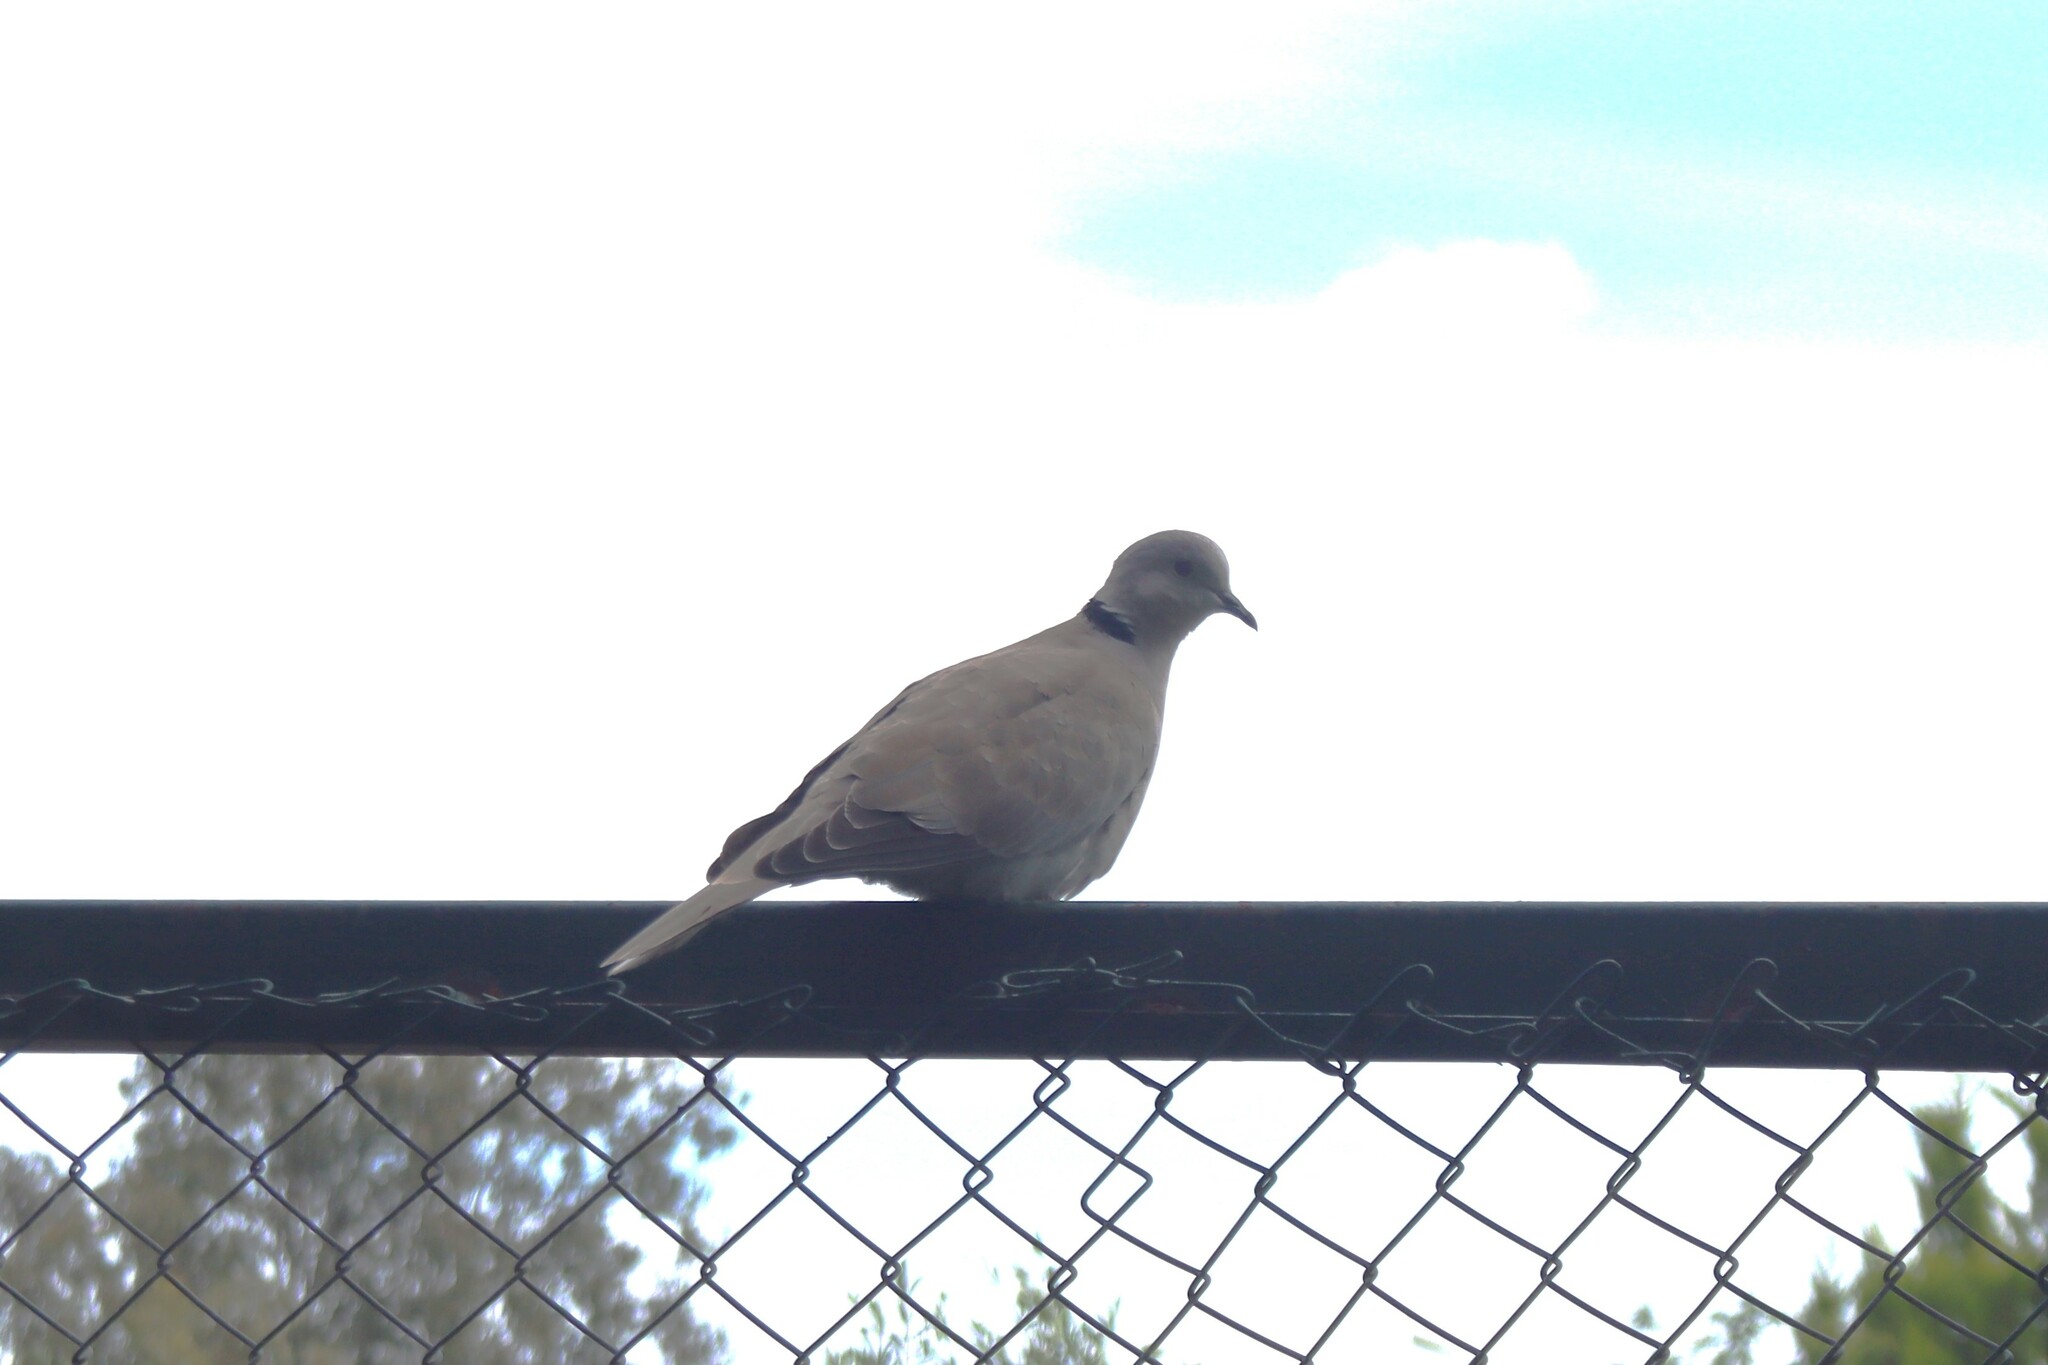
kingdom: Animalia
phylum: Chordata
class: Aves
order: Columbiformes
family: Columbidae
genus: Streptopelia
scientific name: Streptopelia decaocto
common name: Eurasian collared dove
